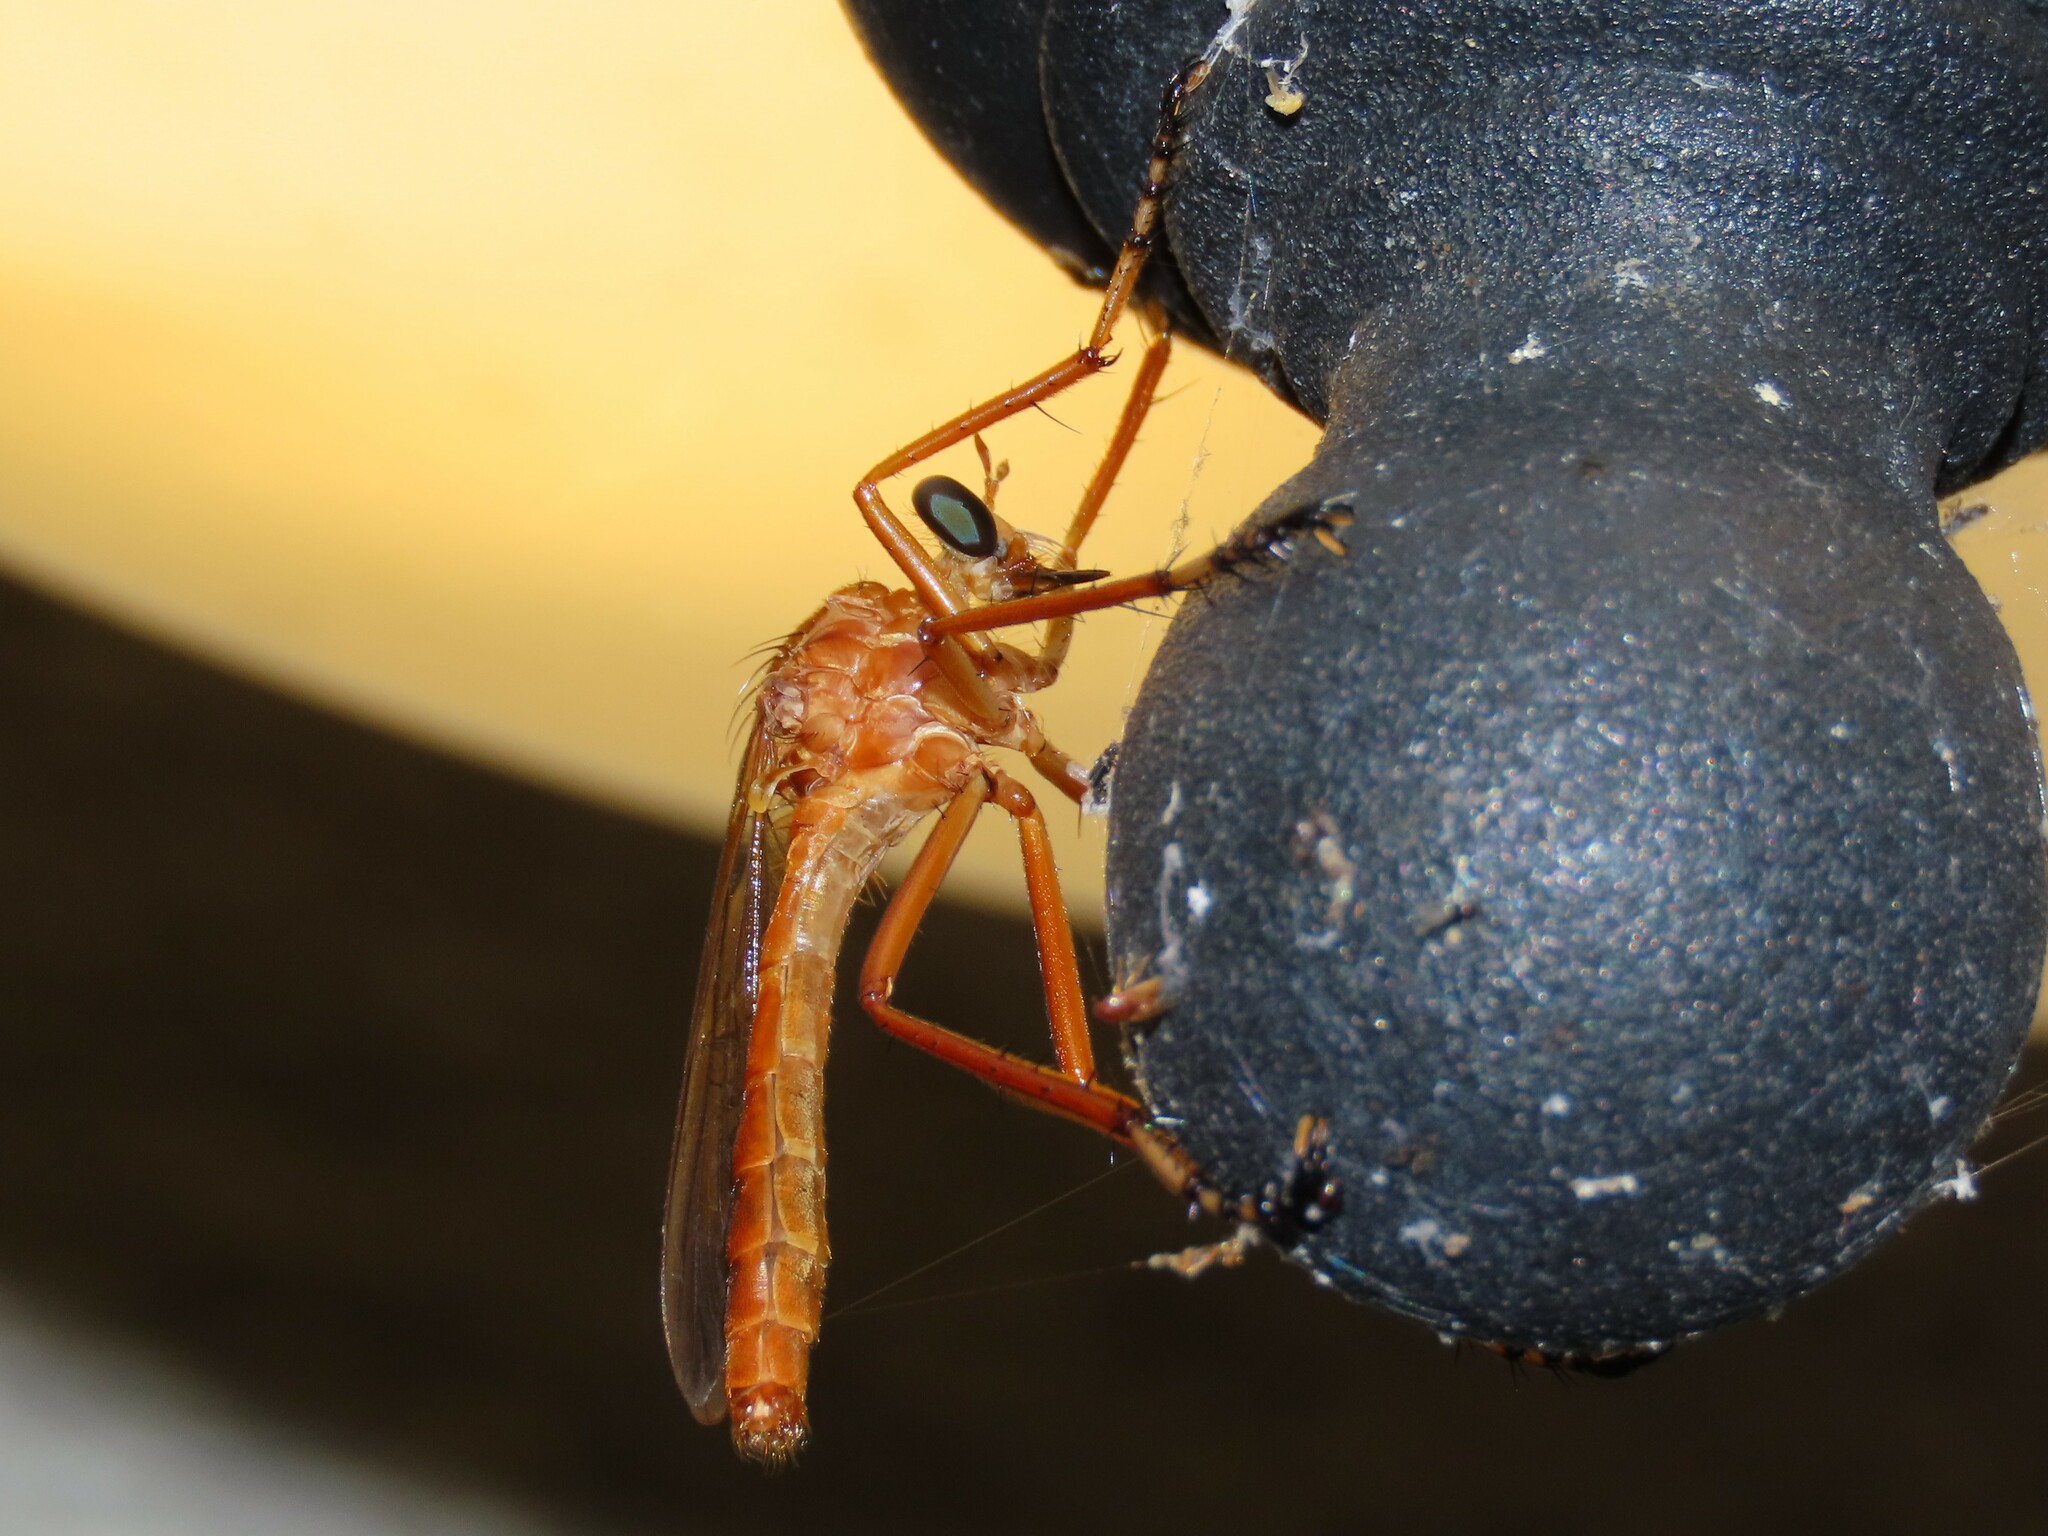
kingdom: Animalia
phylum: Arthropoda
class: Insecta
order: Diptera
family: Asilidae
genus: Diogmites
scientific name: Diogmites neoternatus
